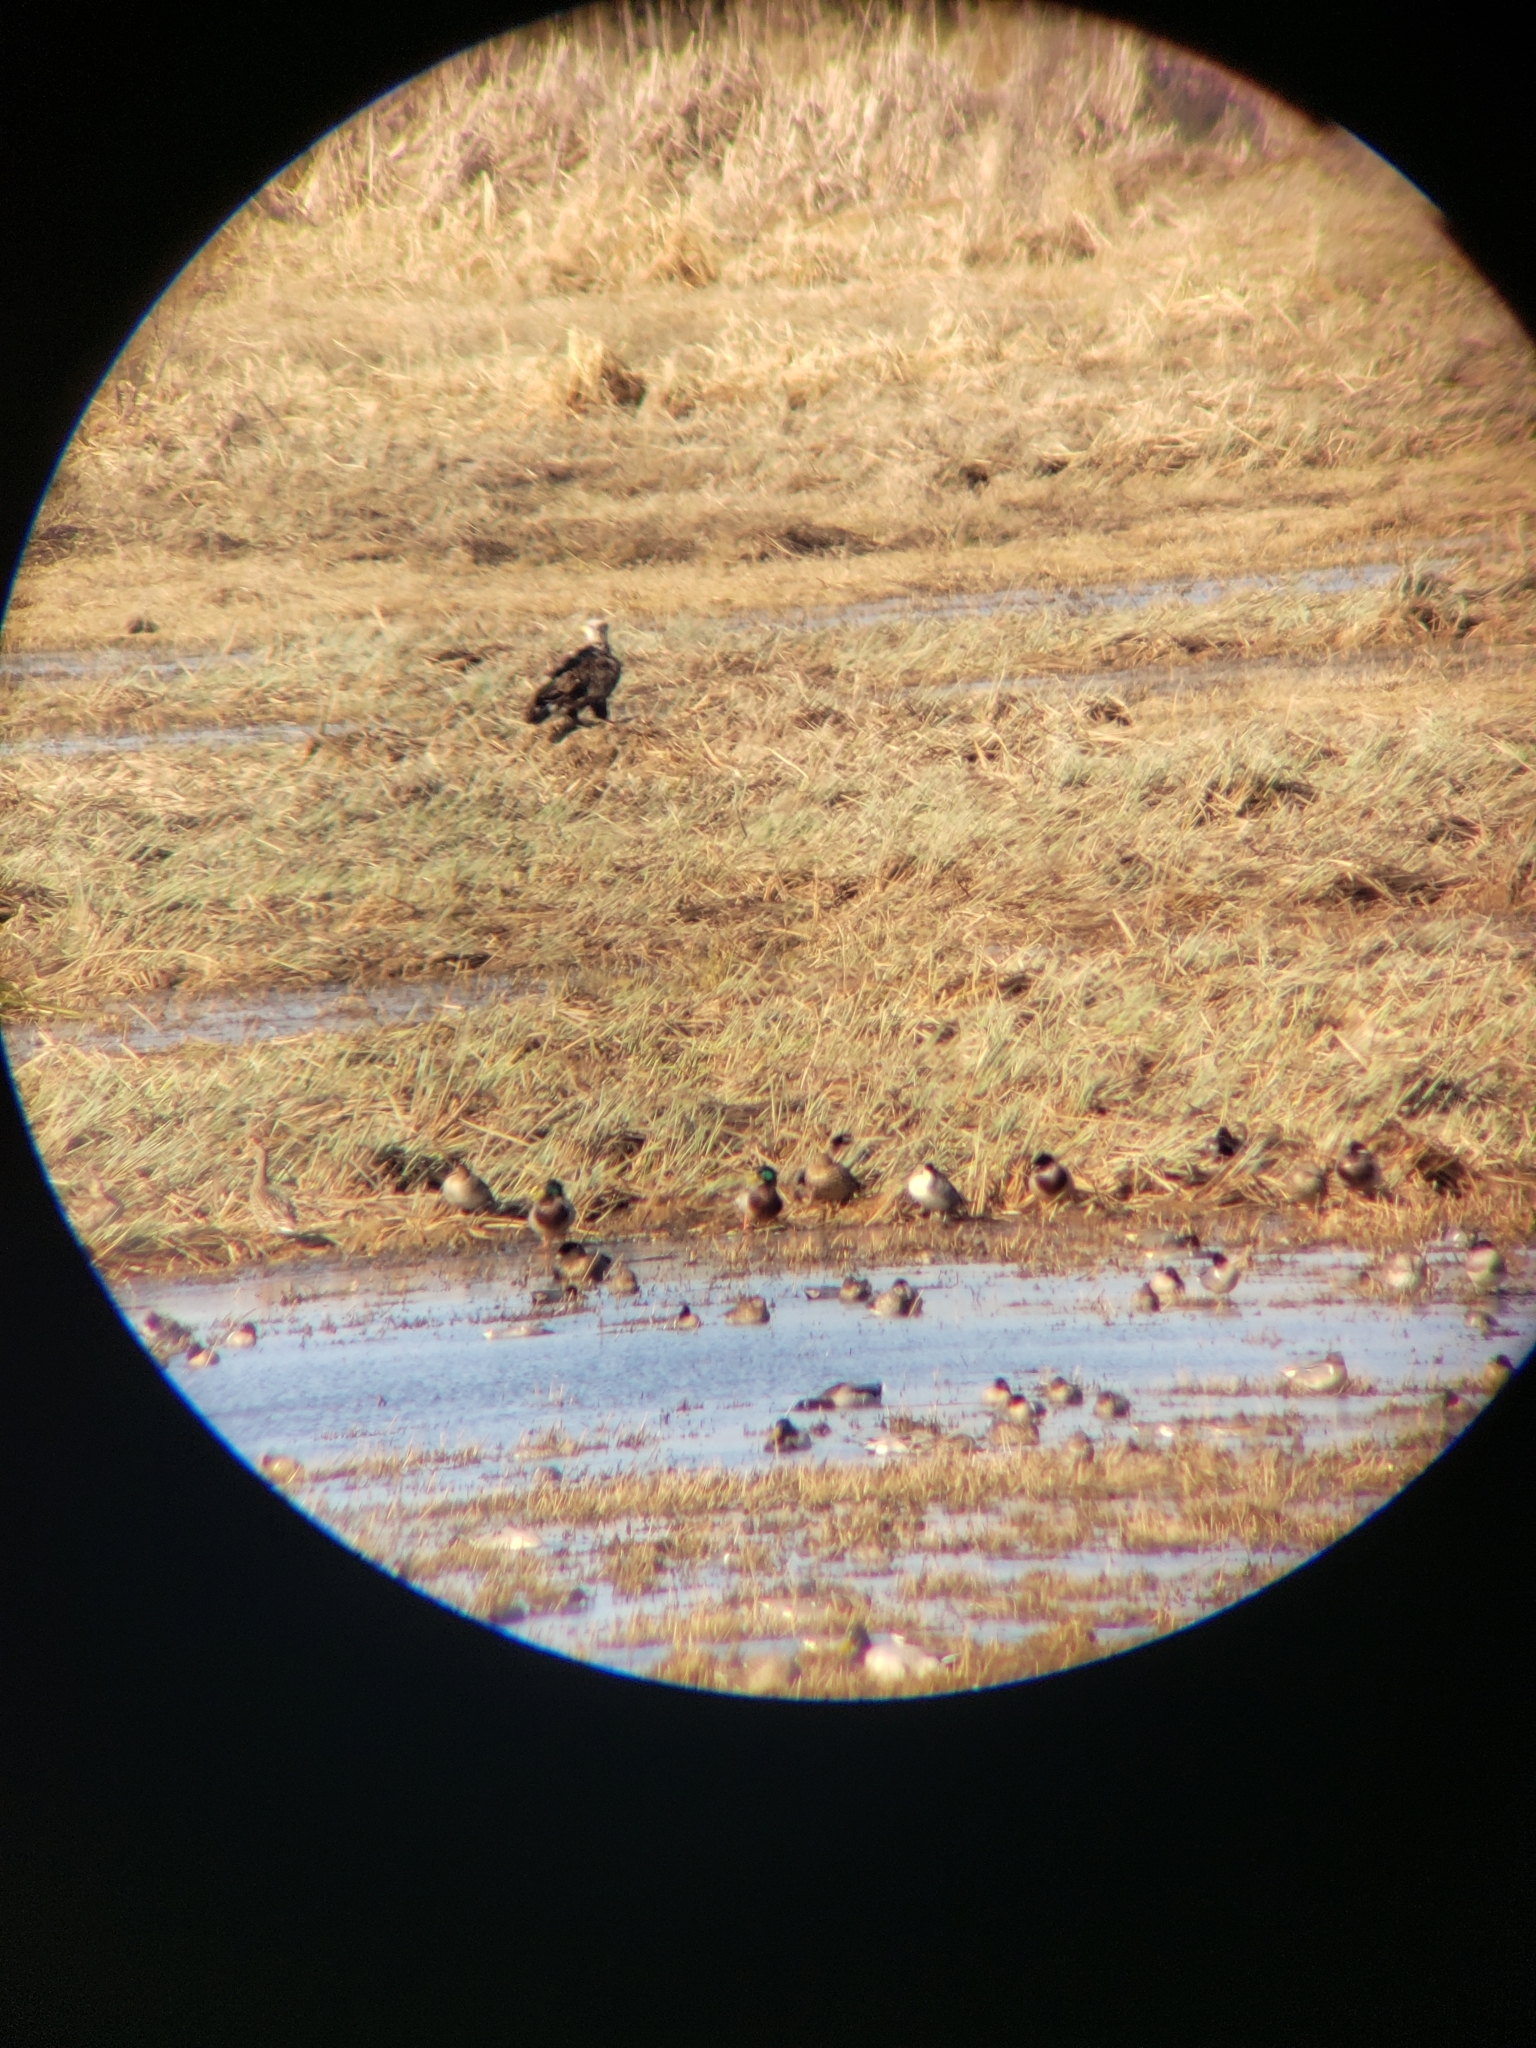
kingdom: Animalia
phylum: Chordata
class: Aves
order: Accipitriformes
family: Accipitridae
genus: Haliaeetus
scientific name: Haliaeetus leucocephalus
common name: Bald eagle
